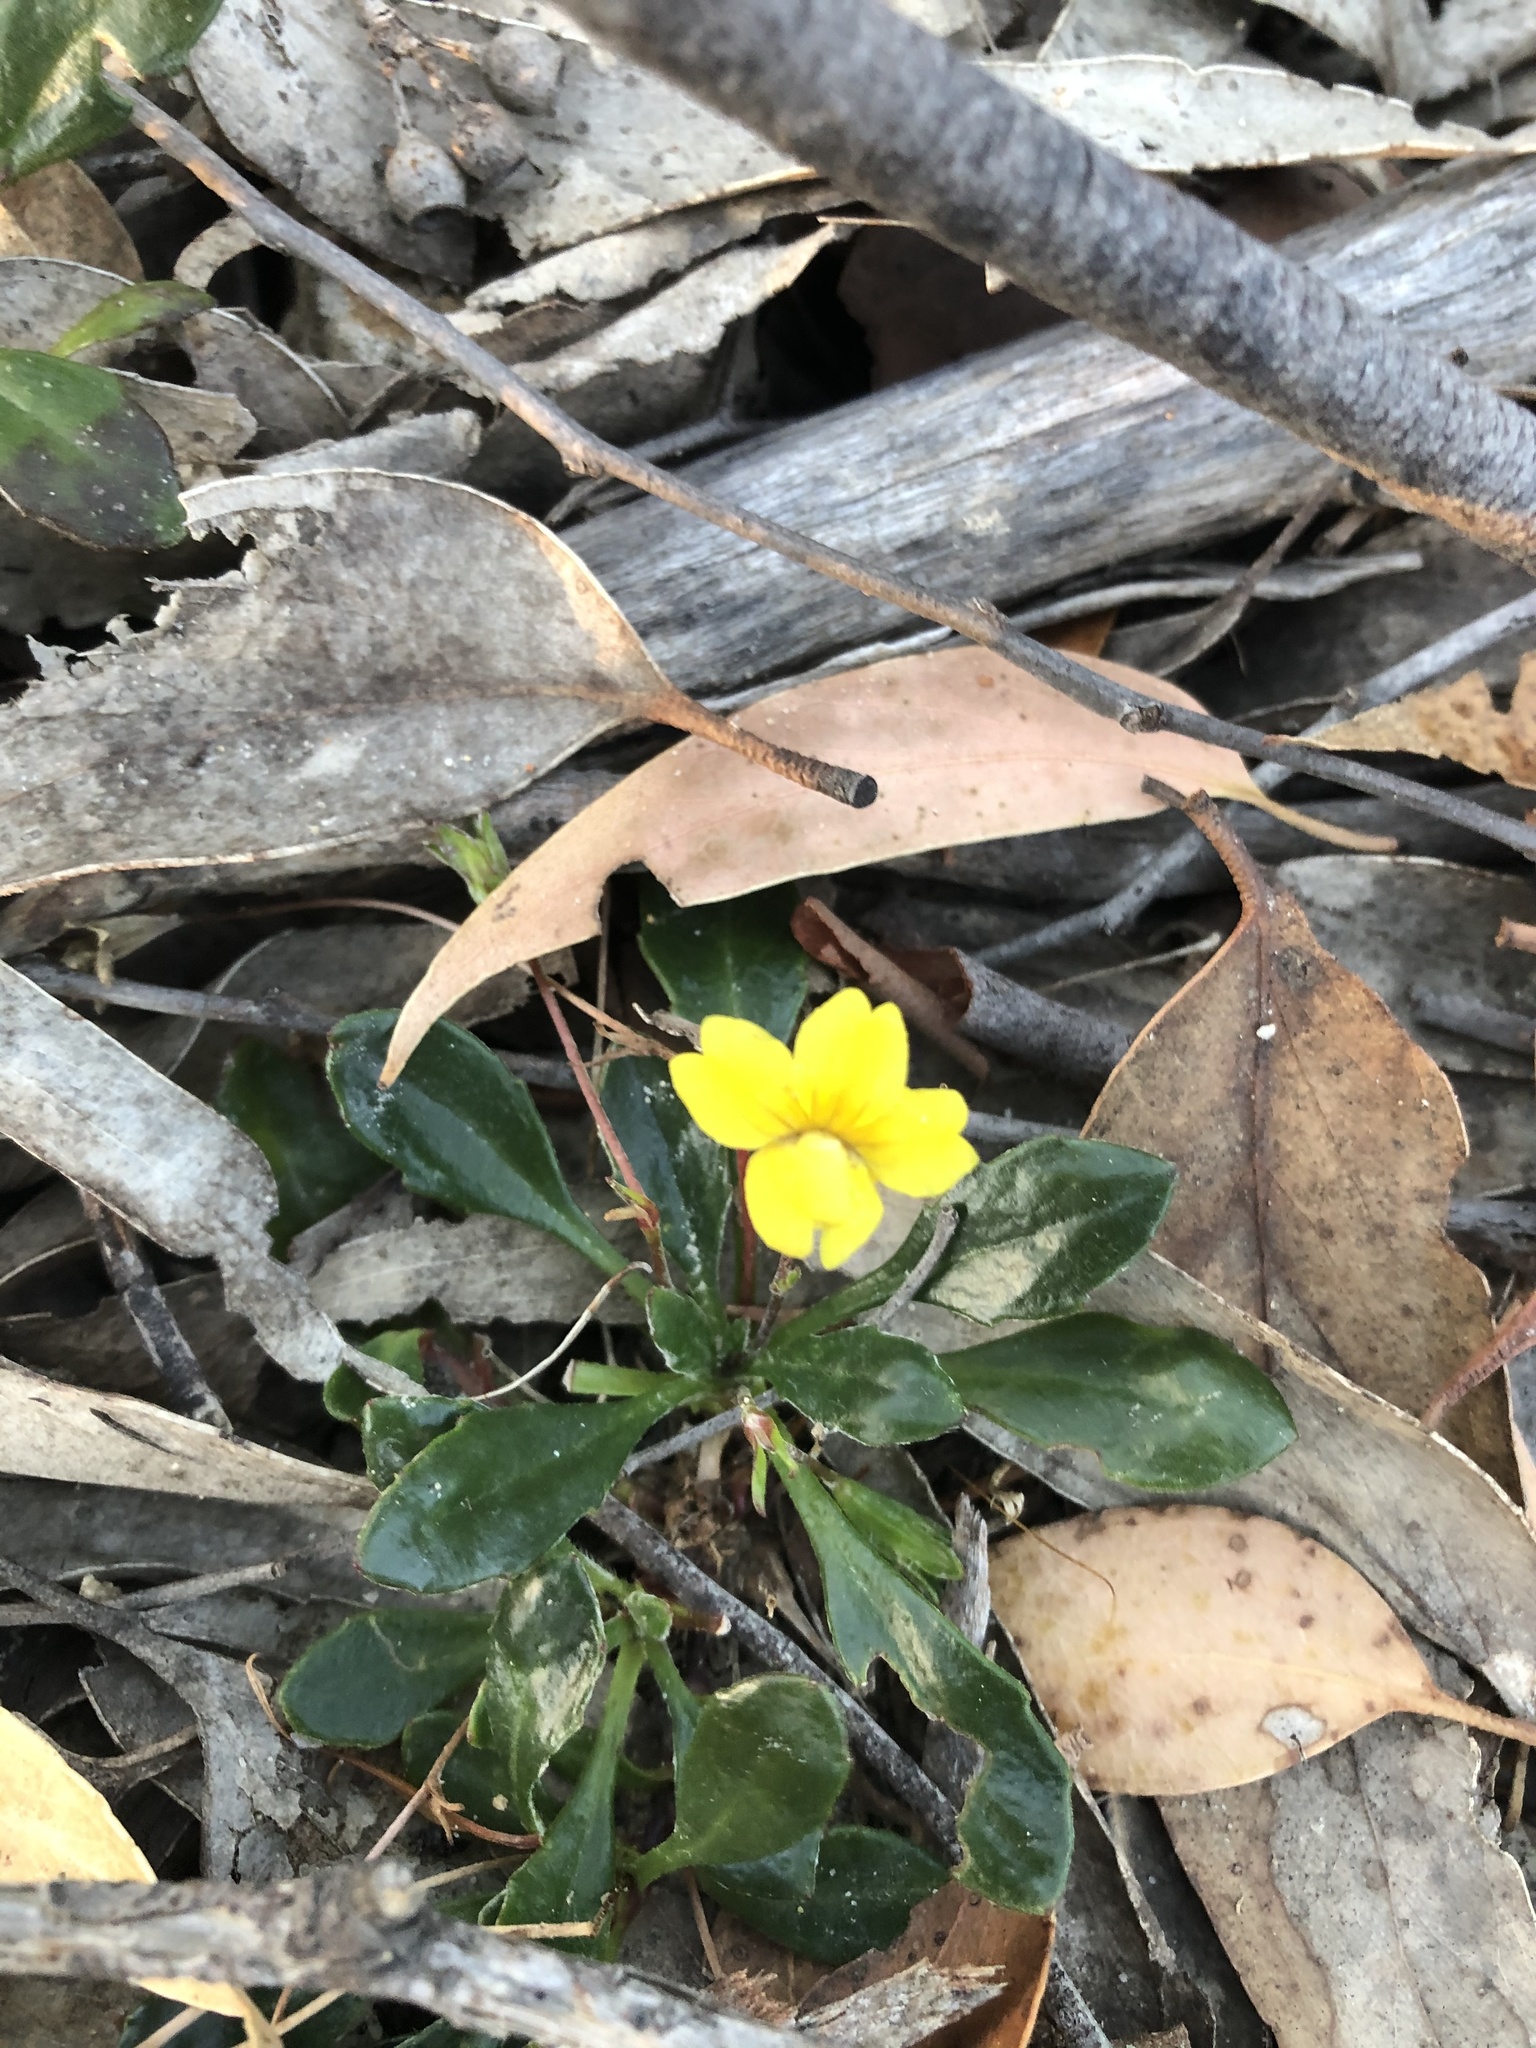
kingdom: Plantae
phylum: Tracheophyta
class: Magnoliopsida
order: Asterales
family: Goodeniaceae
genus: Goodenia
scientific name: Goodenia blackiana
